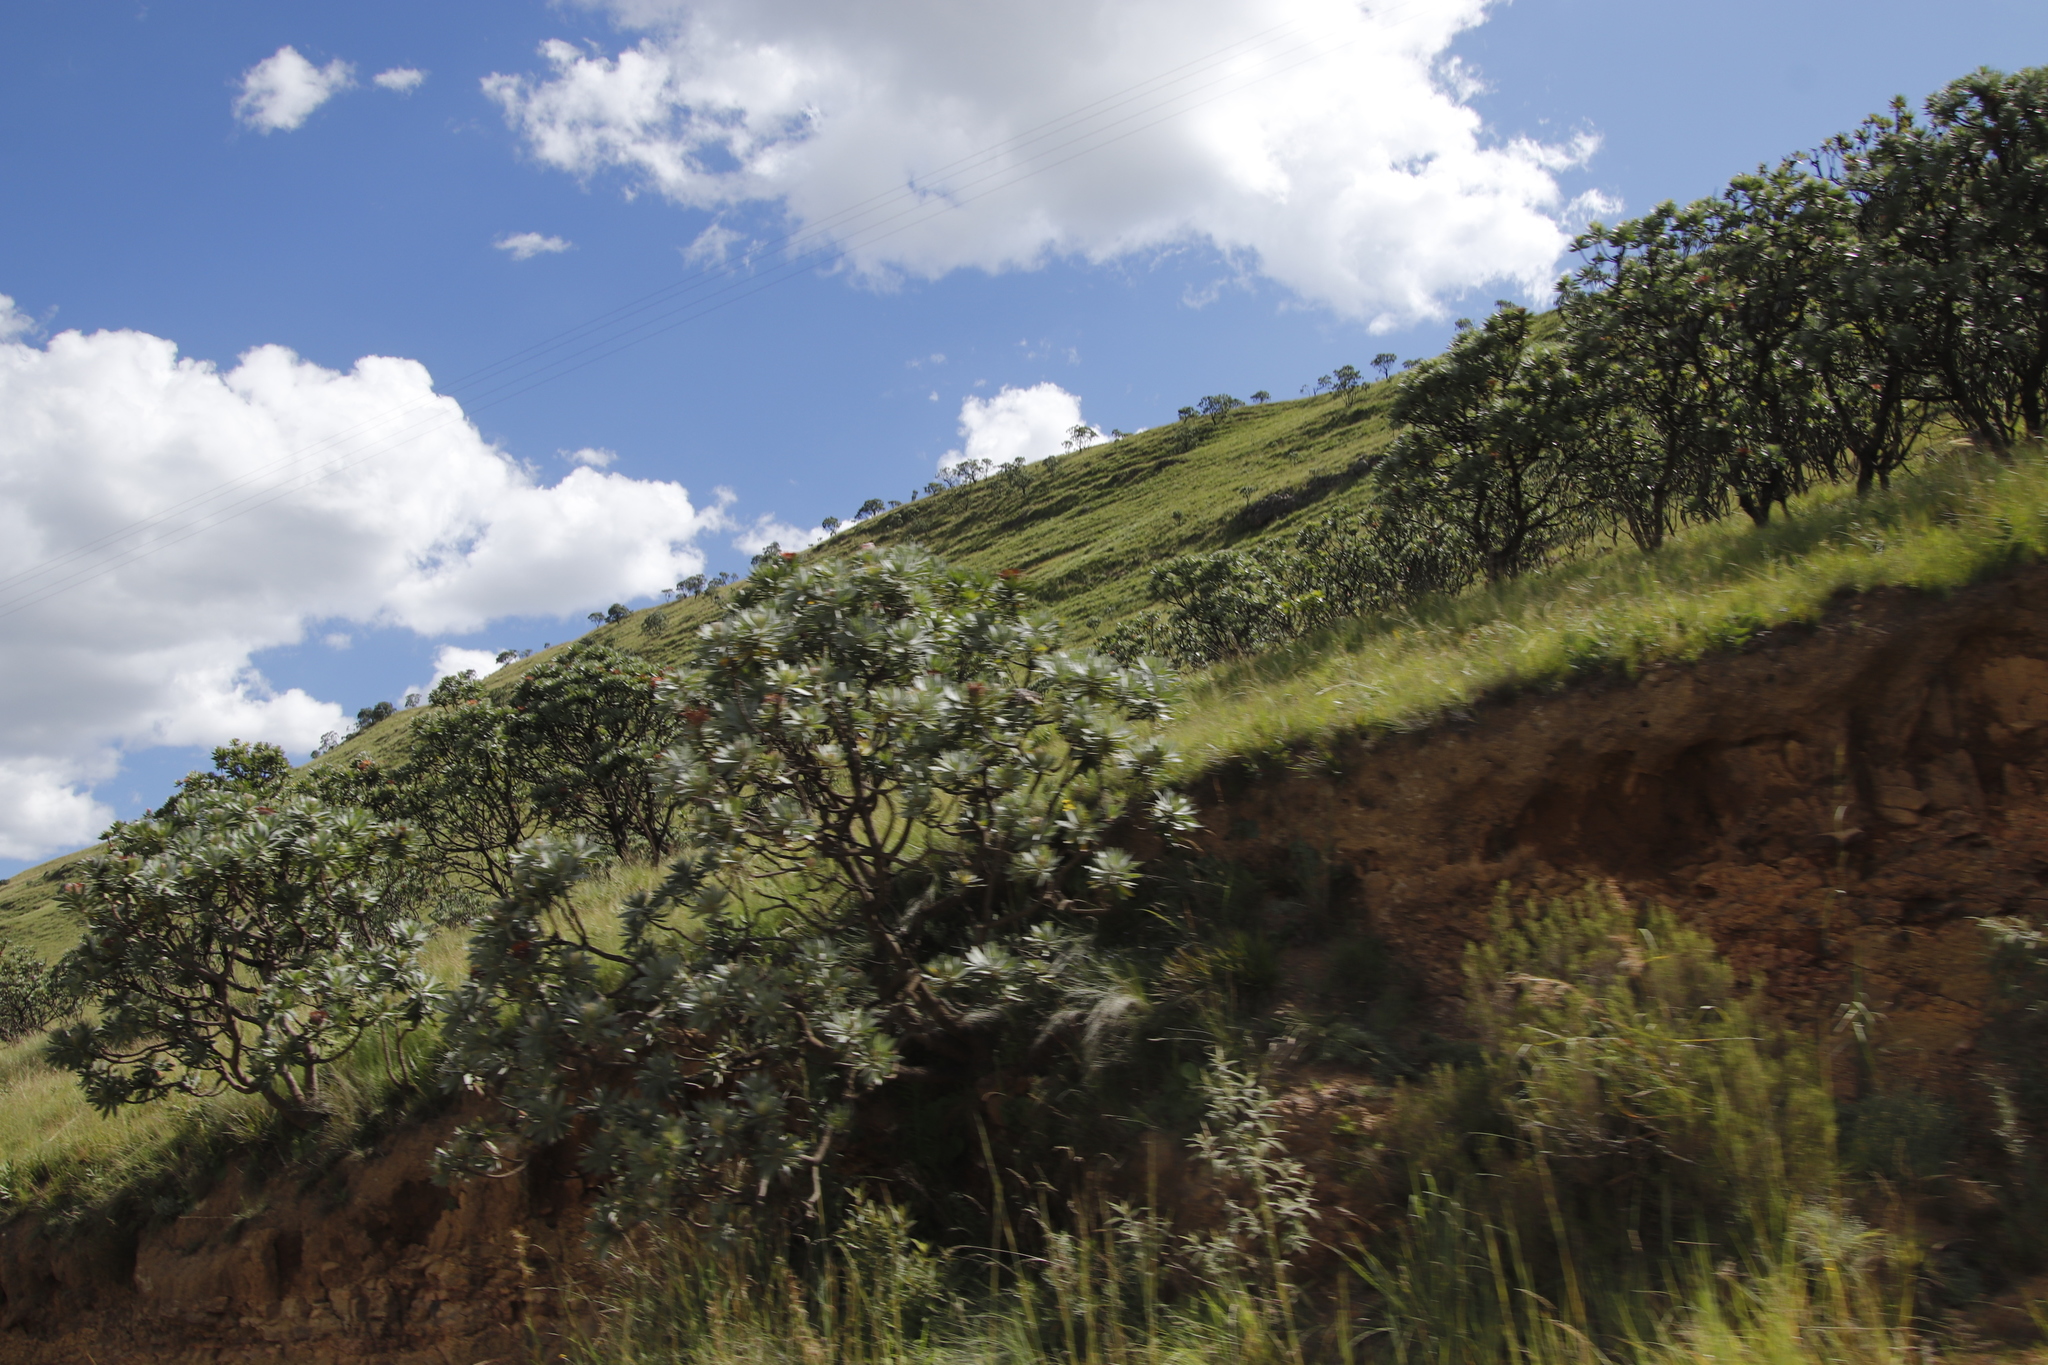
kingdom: Plantae
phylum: Tracheophyta
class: Magnoliopsida
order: Proteales
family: Proteaceae
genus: Protea
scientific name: Protea roupelliae
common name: Silver sugarbush
